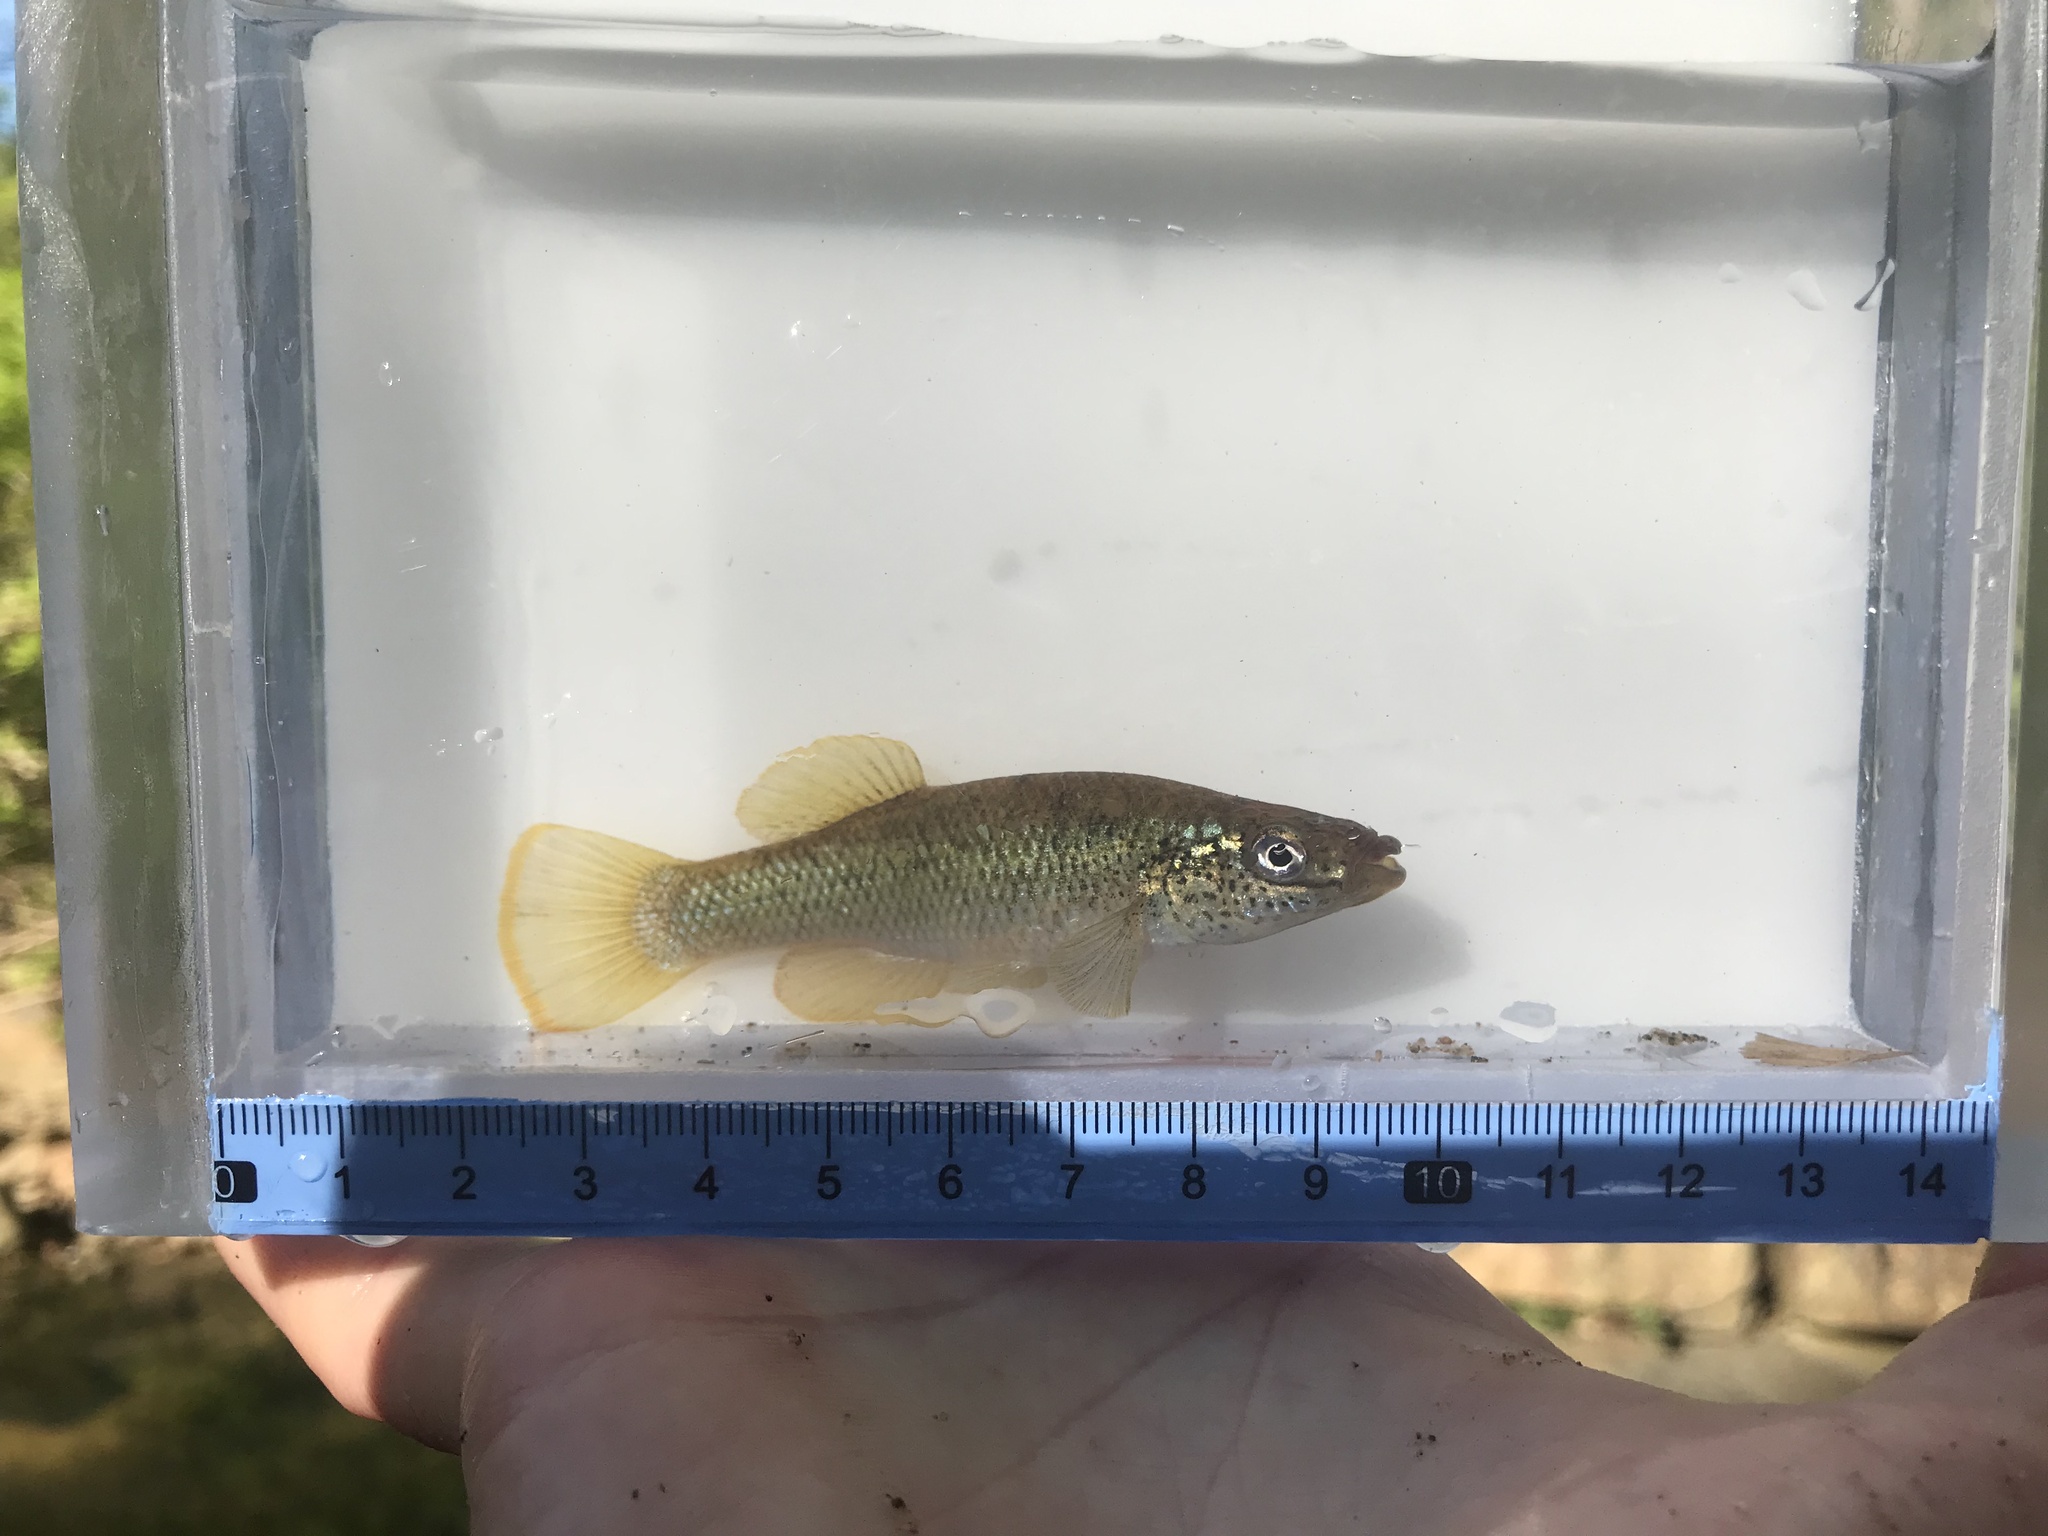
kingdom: Animalia
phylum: Chordata
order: Cyprinodontiformes
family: Fundulidae
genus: Fundulus
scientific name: Fundulus rathbuni
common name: Speckled killifish
